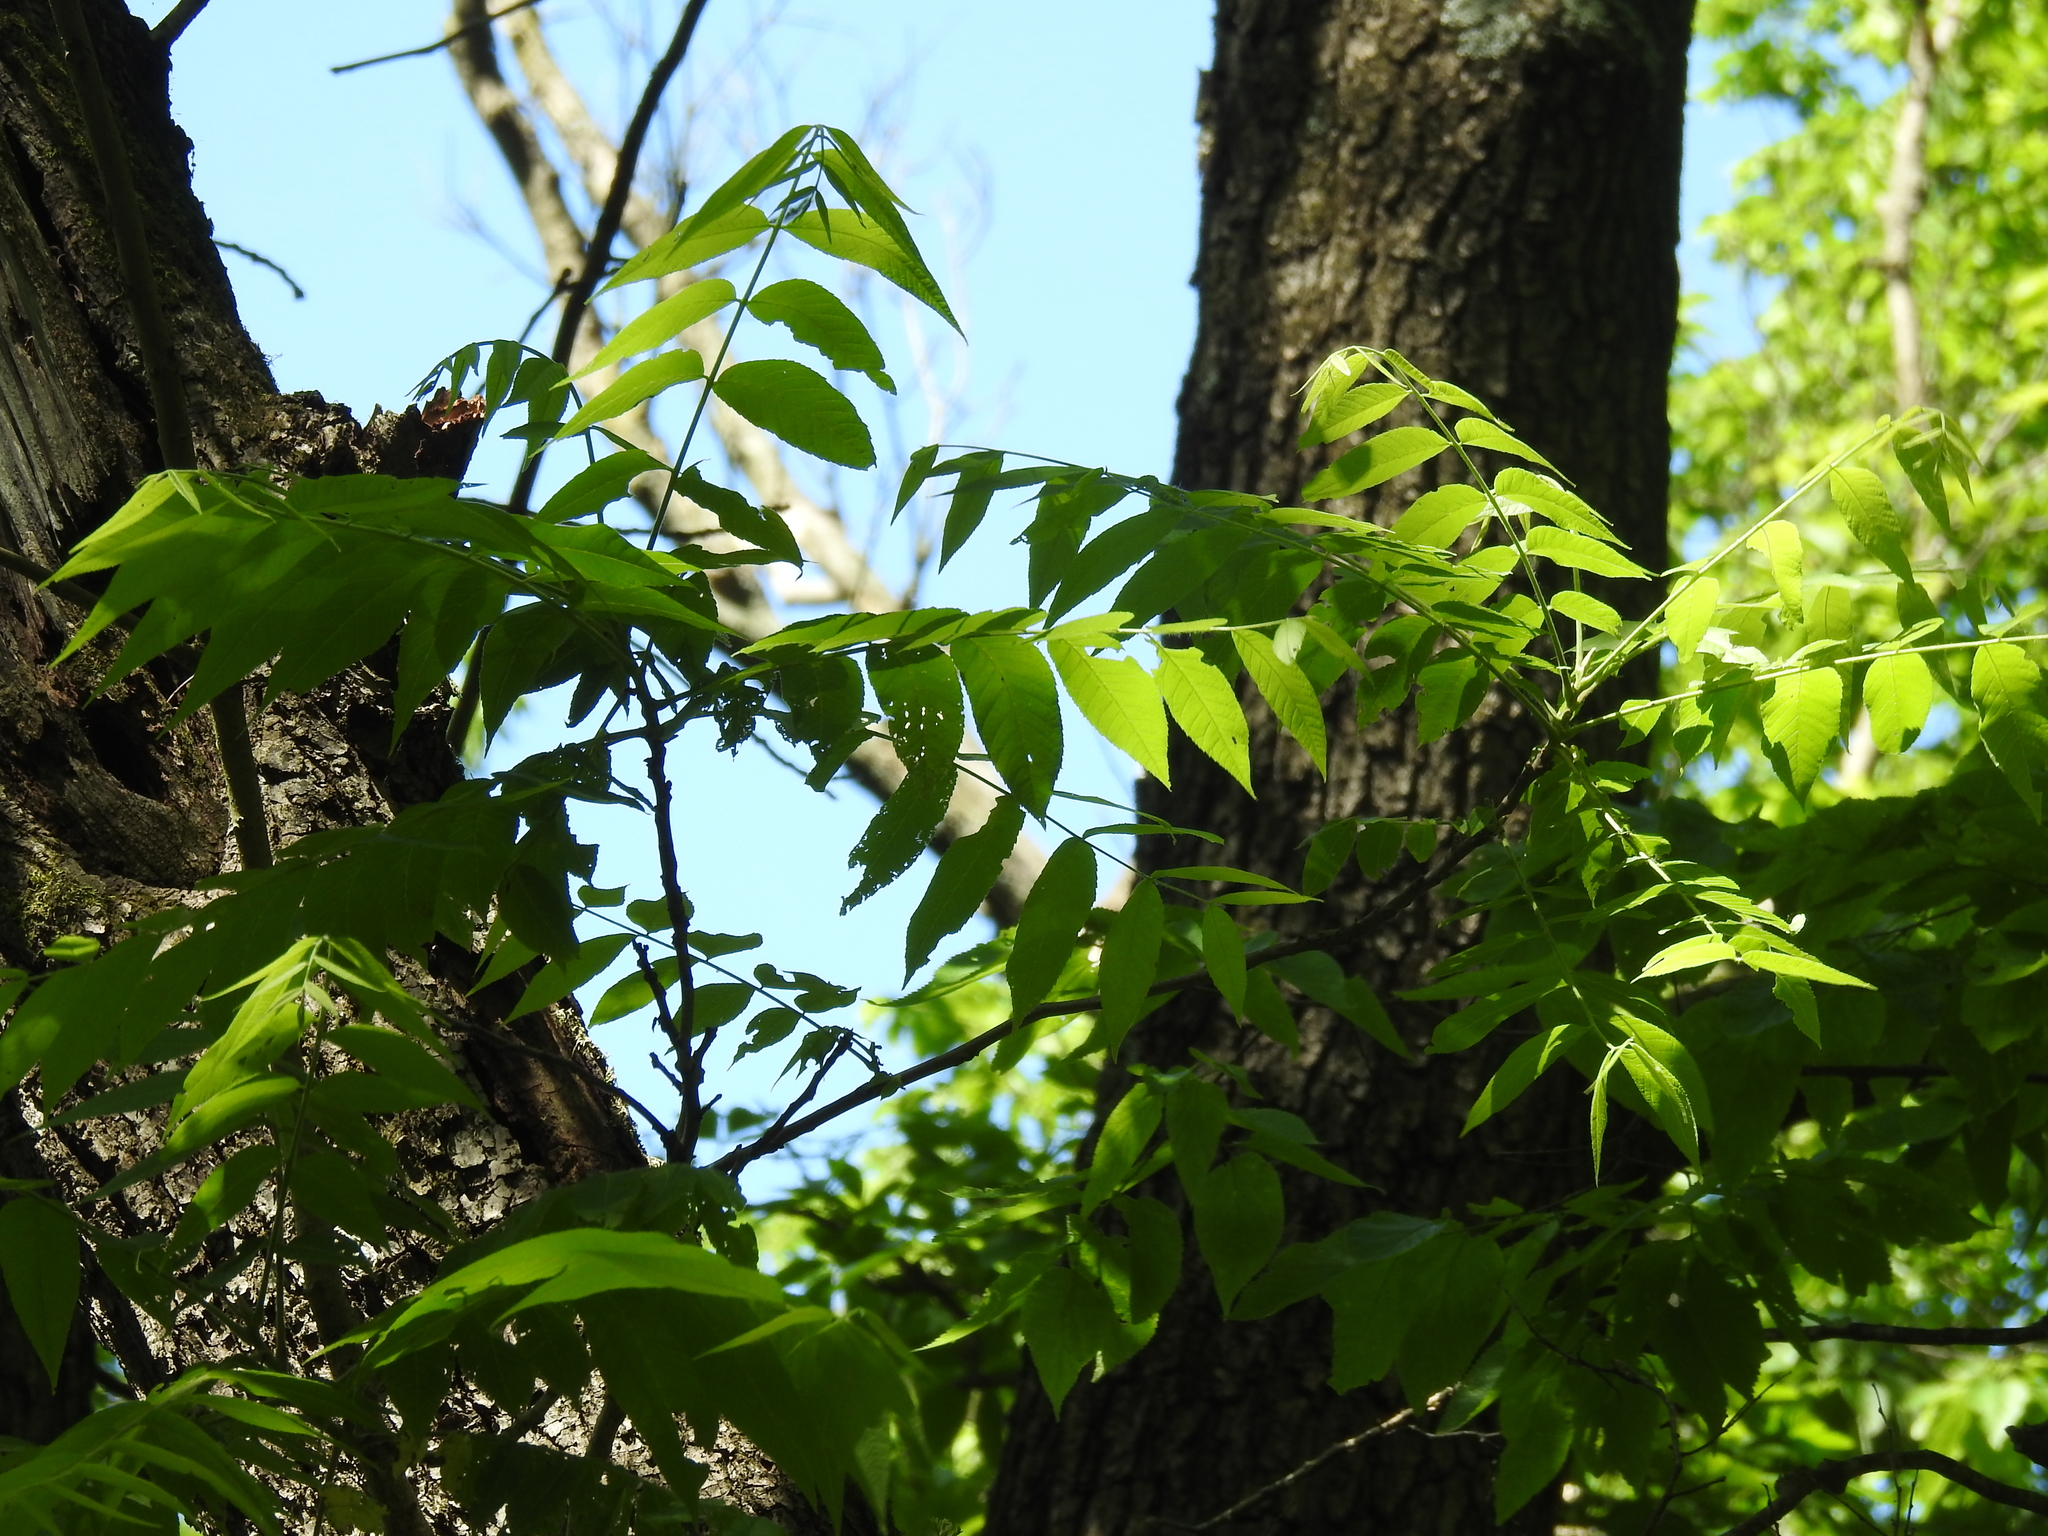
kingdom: Plantae
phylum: Tracheophyta
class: Magnoliopsida
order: Fagales
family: Juglandaceae
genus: Juglans
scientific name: Juglans nigra
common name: Black walnut
